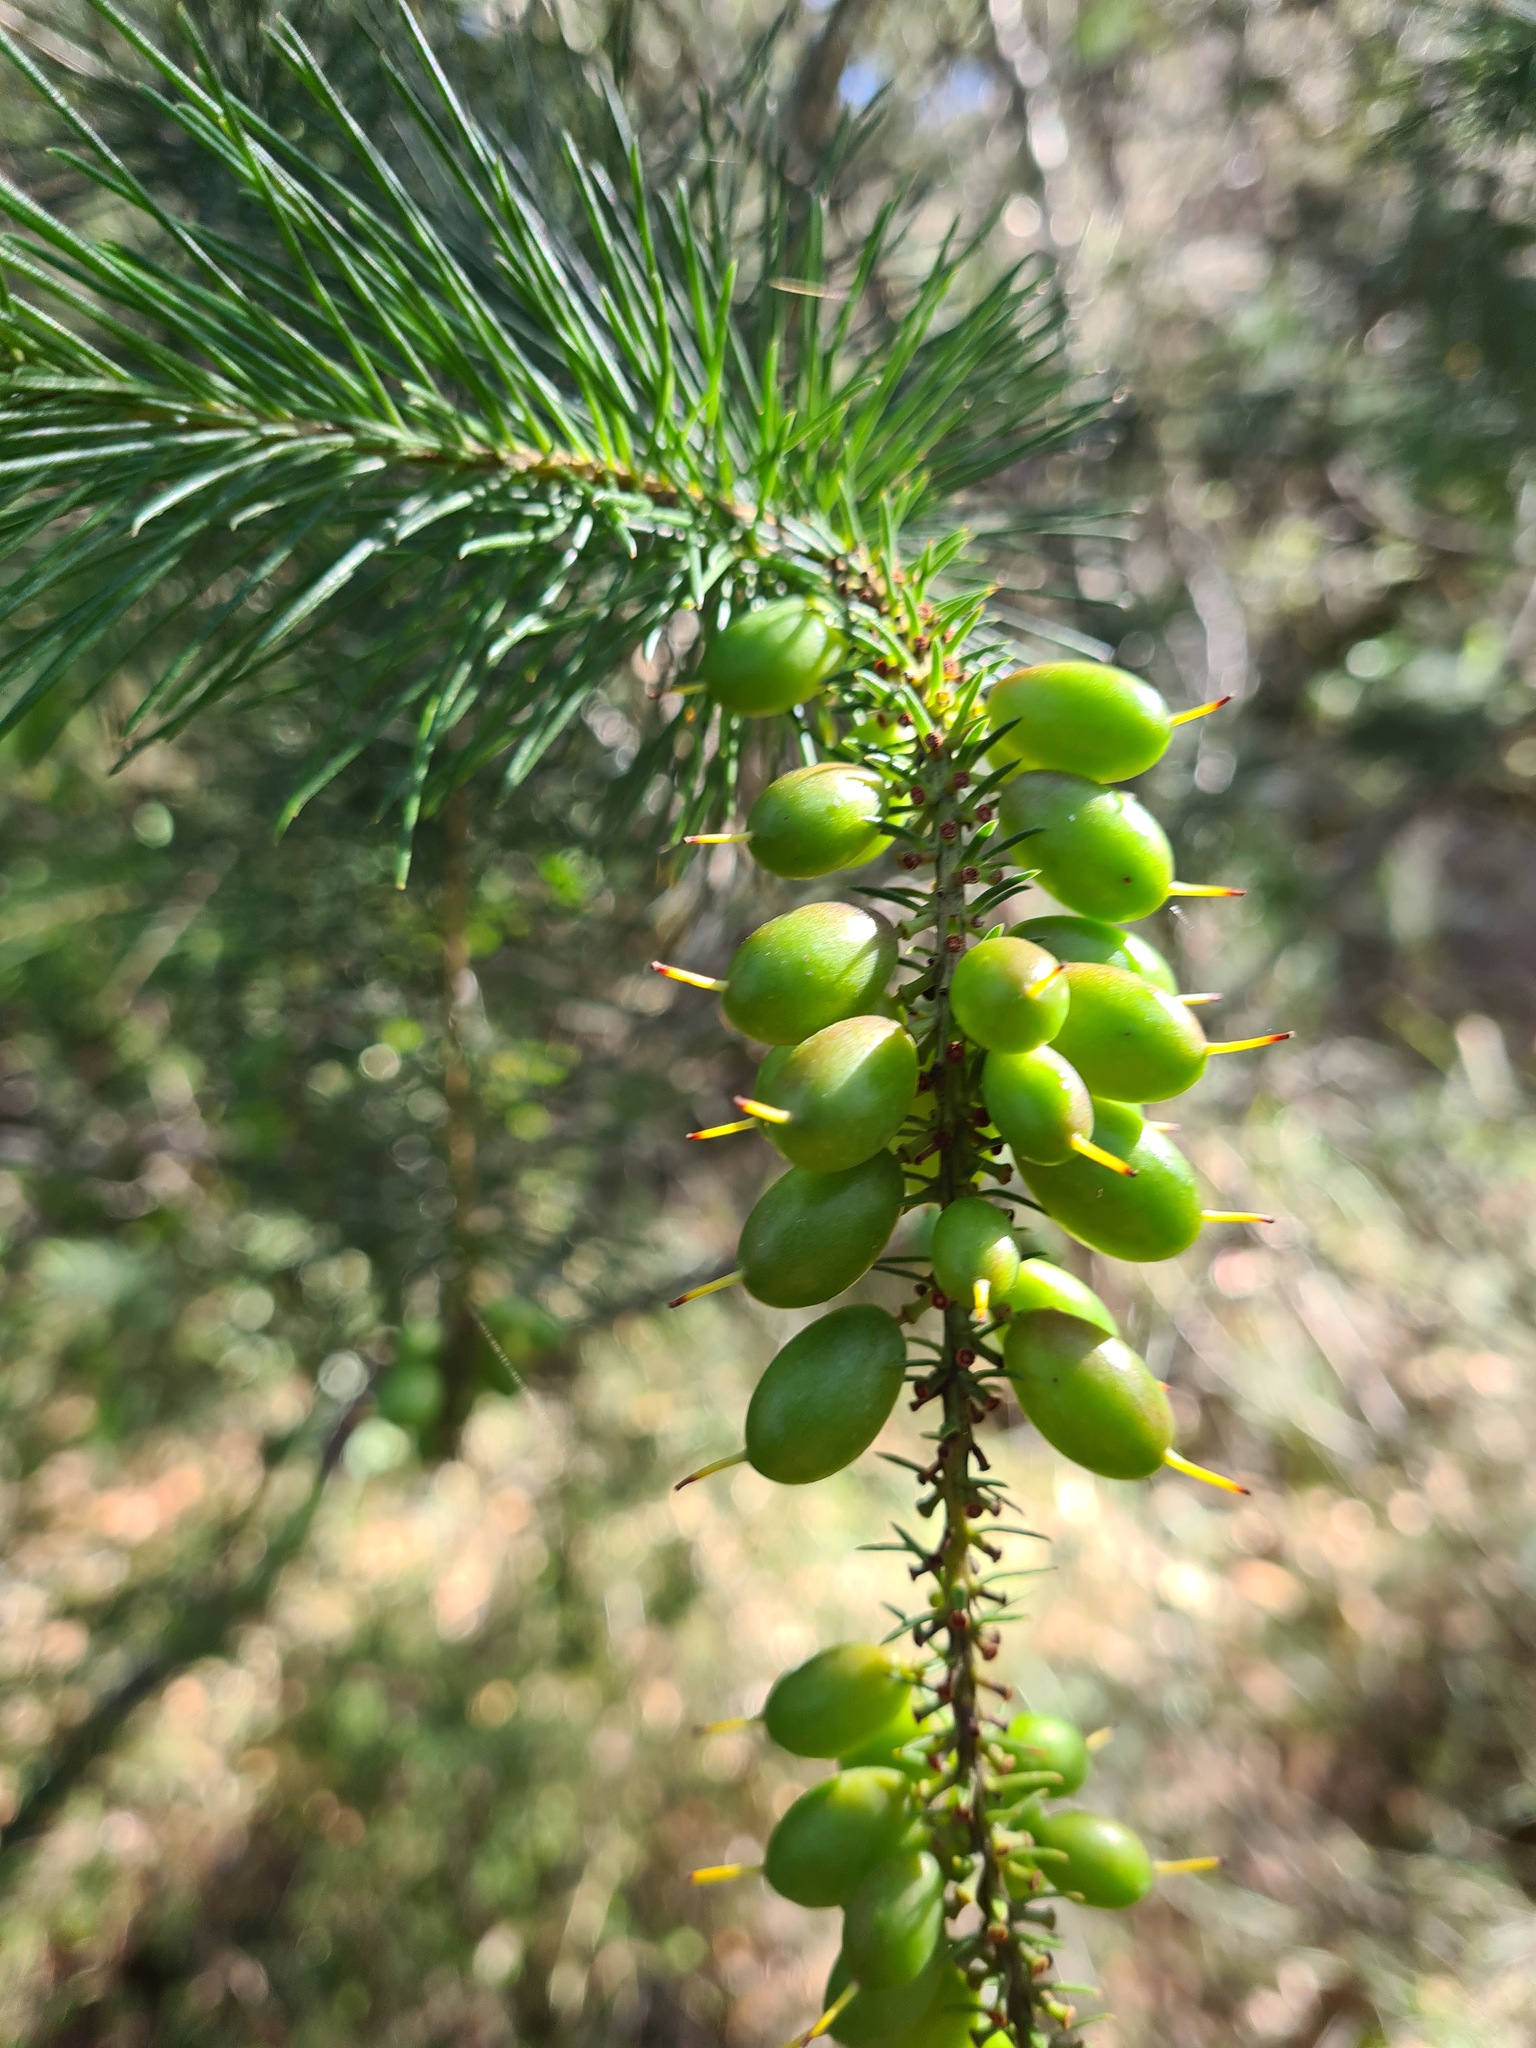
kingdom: Plantae
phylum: Tracheophyta
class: Magnoliopsida
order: Proteales
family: Proteaceae
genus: Persoonia
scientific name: Persoonia pinifolia
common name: Pine-leaf geebung
